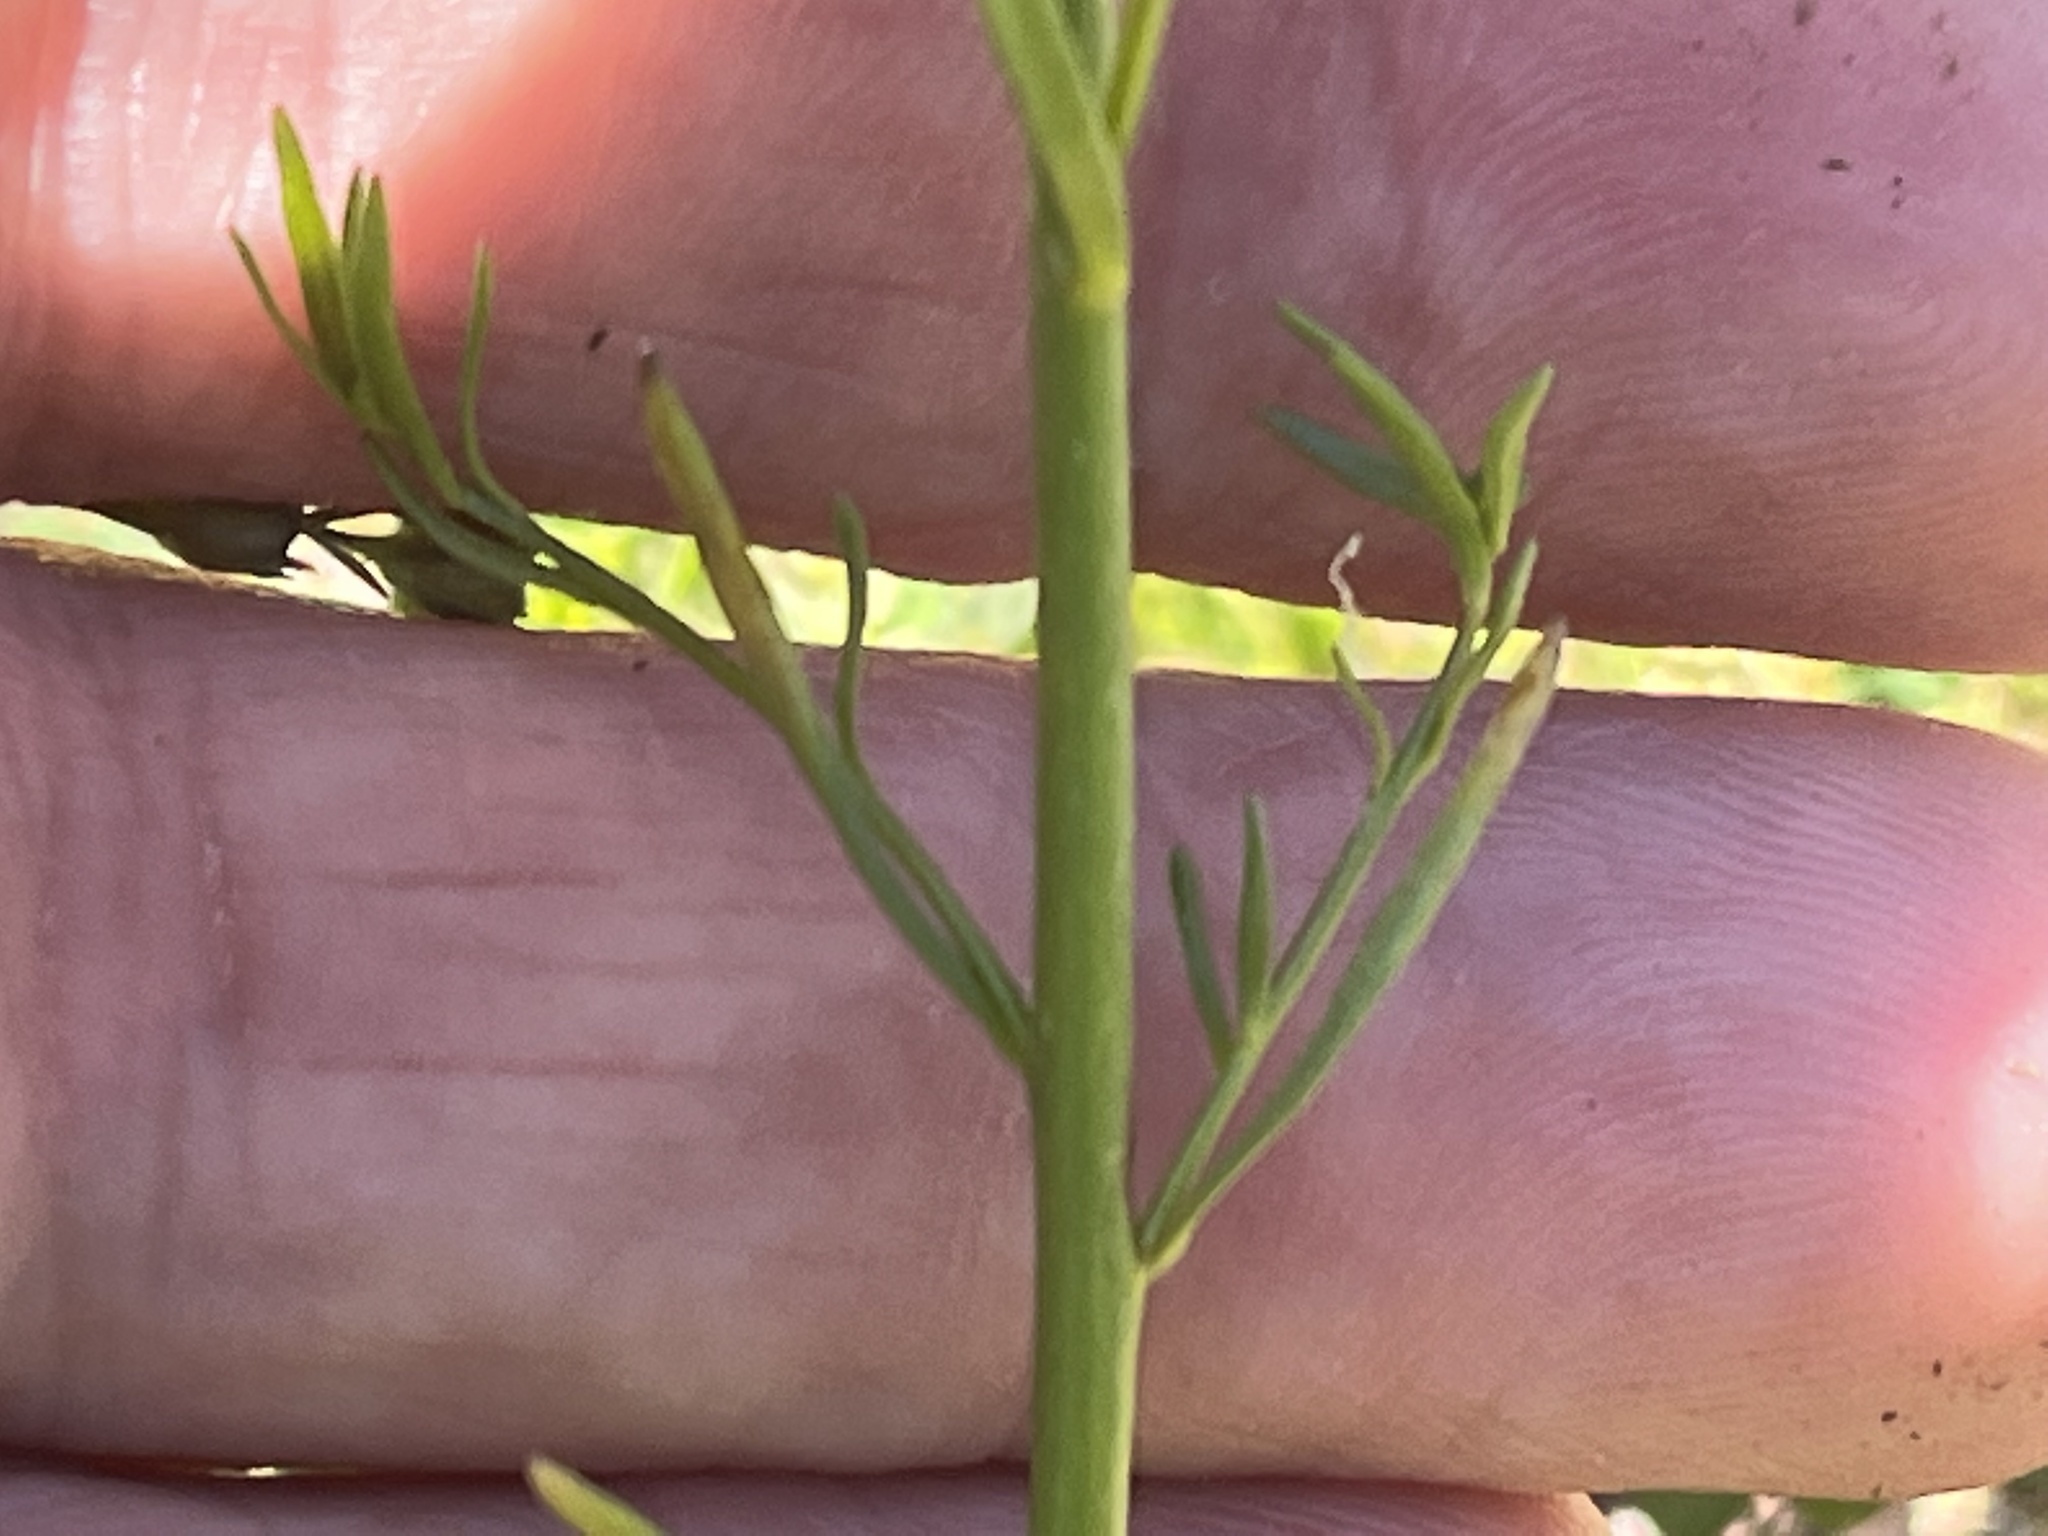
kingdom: Plantae
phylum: Tracheophyta
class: Magnoliopsida
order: Lamiales
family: Plantaginaceae
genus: Nuttallanthus
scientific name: Nuttallanthus canadensis
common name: Blue toadflax
